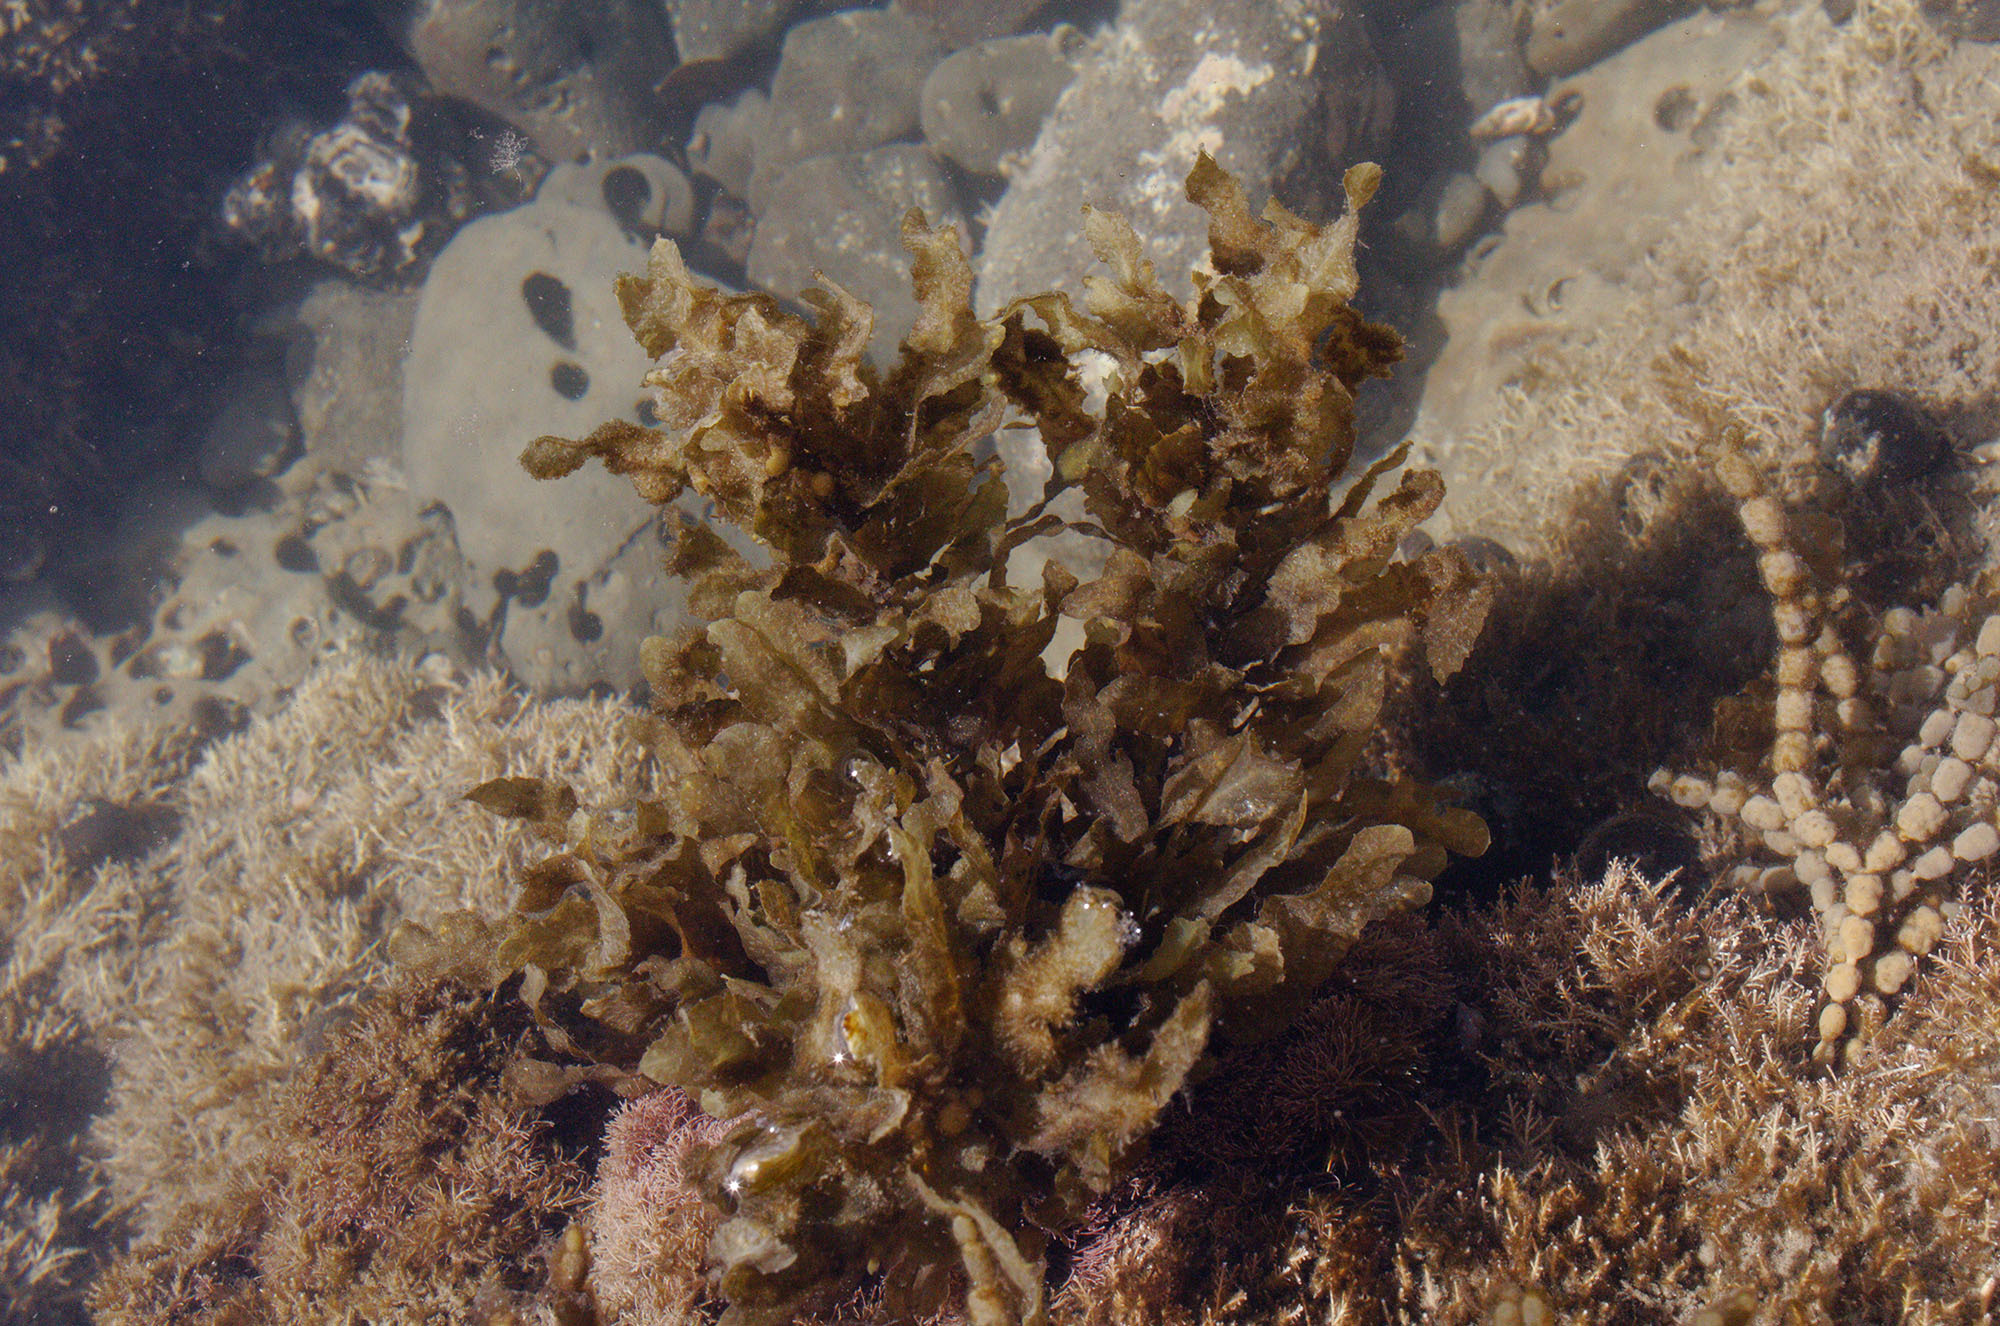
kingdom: Chromista
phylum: Ochrophyta
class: Phaeophyceae
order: Fucales
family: Sargassaceae
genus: Sargassum
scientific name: Sargassum sinclairii
